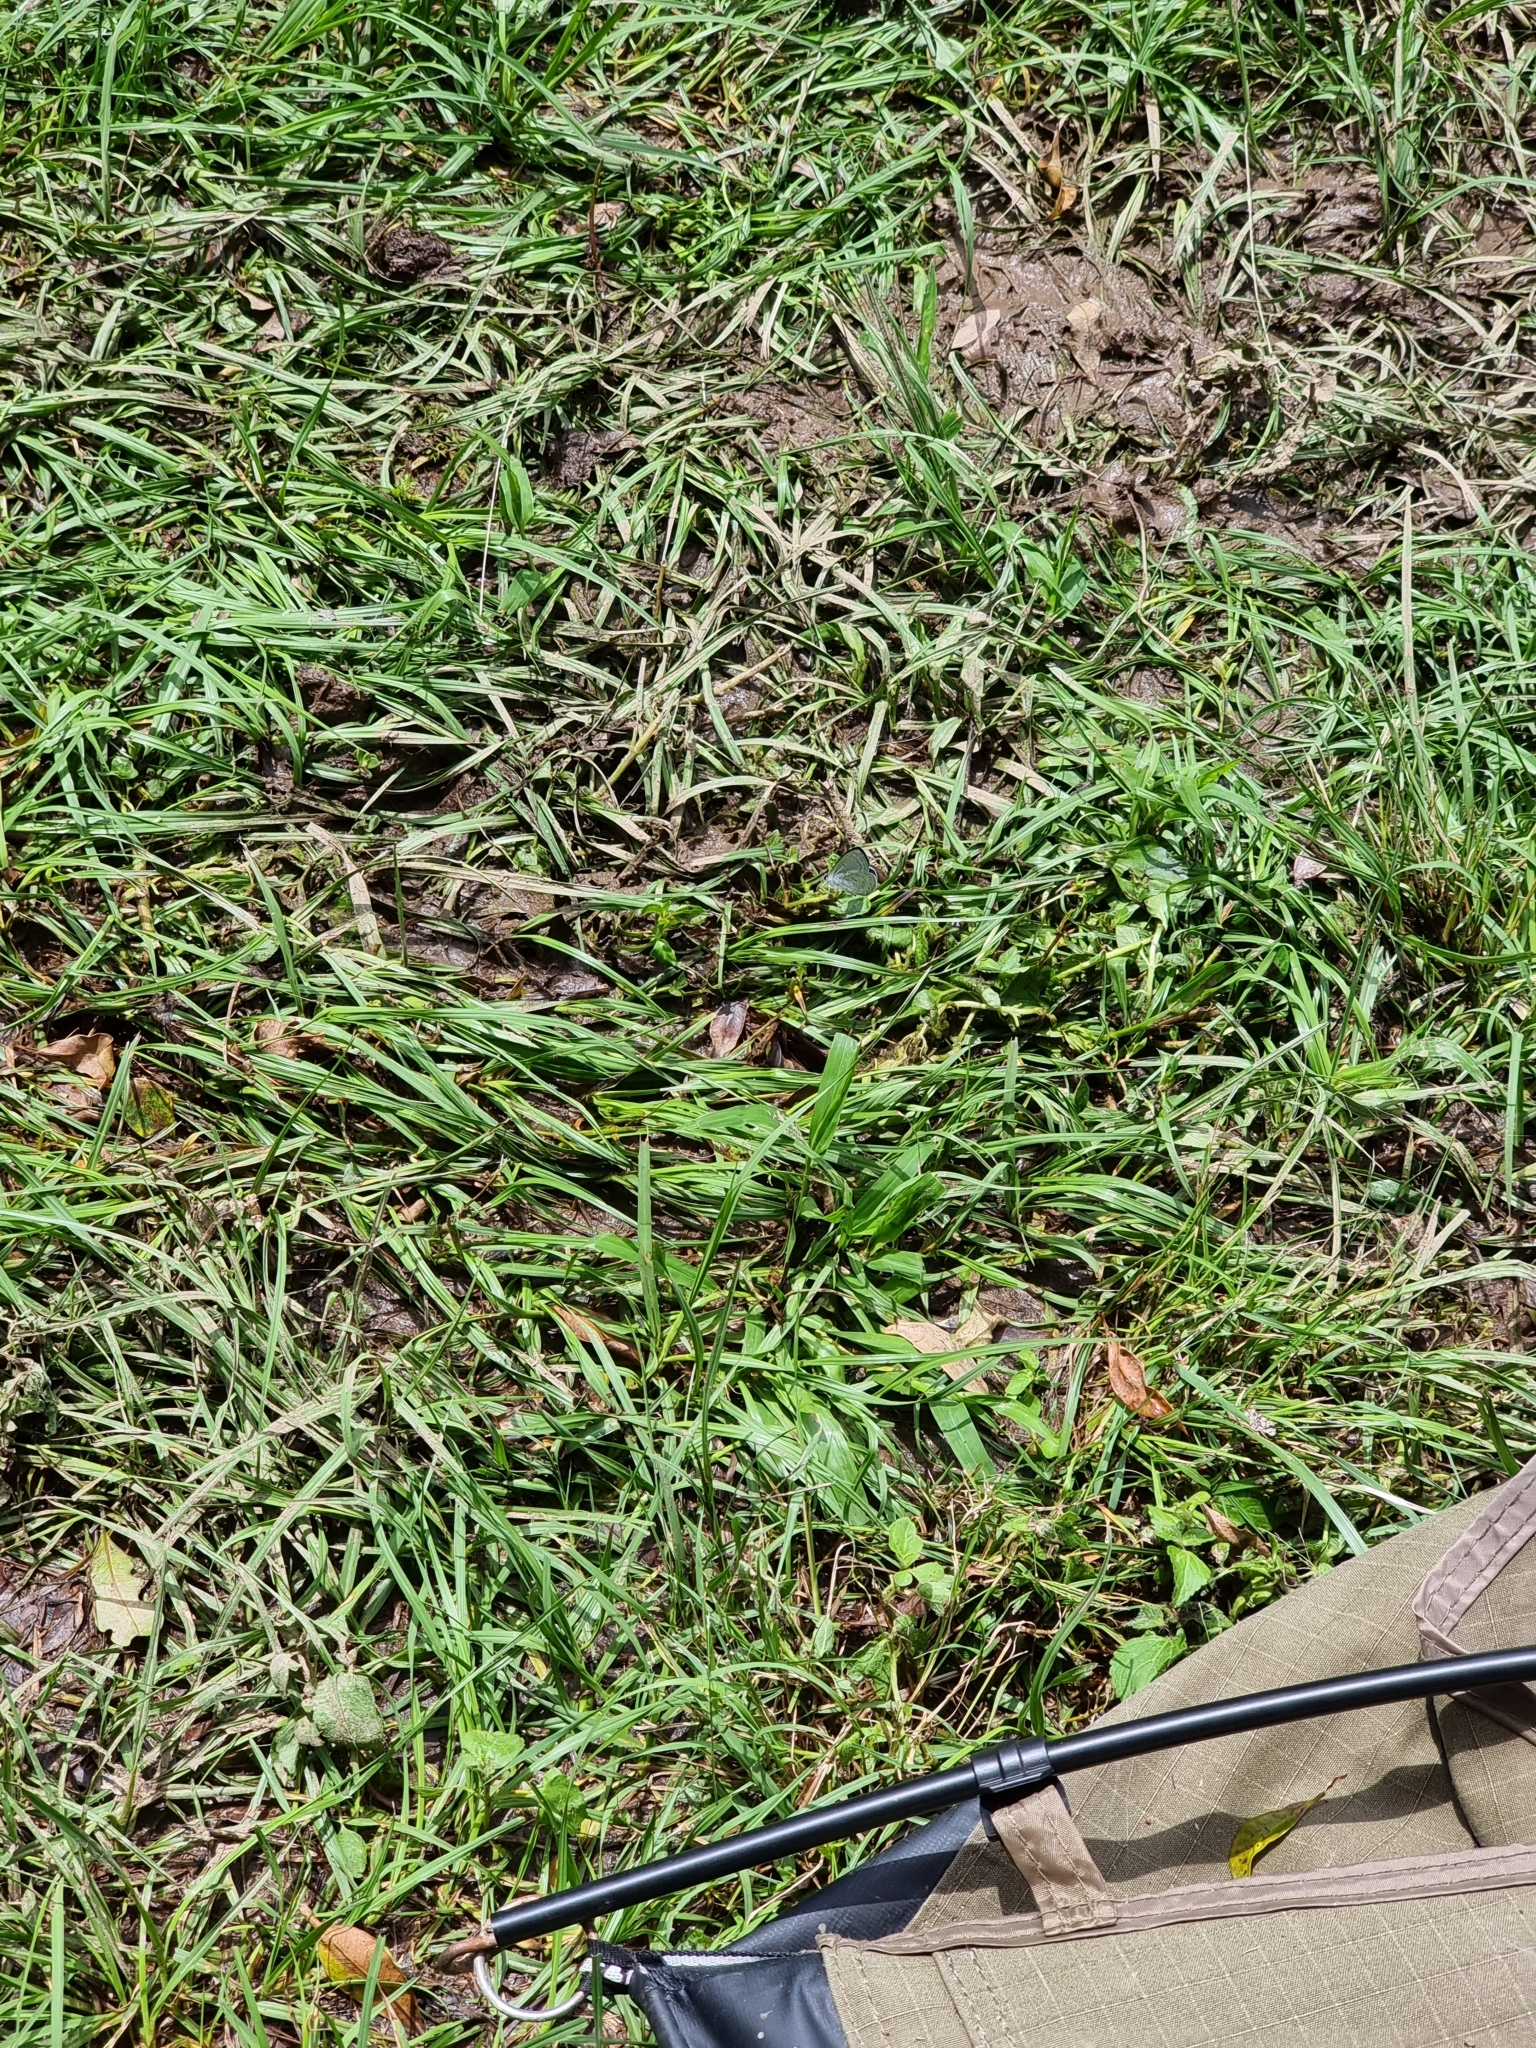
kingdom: Animalia
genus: Eirmocides
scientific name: Eirmocides
